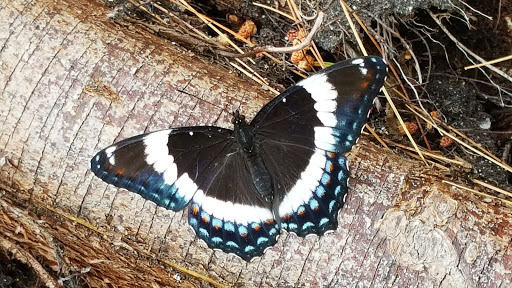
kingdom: Animalia
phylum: Arthropoda
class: Insecta
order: Lepidoptera
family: Nymphalidae
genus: Limenitis
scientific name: Limenitis arthemis
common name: Red-spotted admiral
